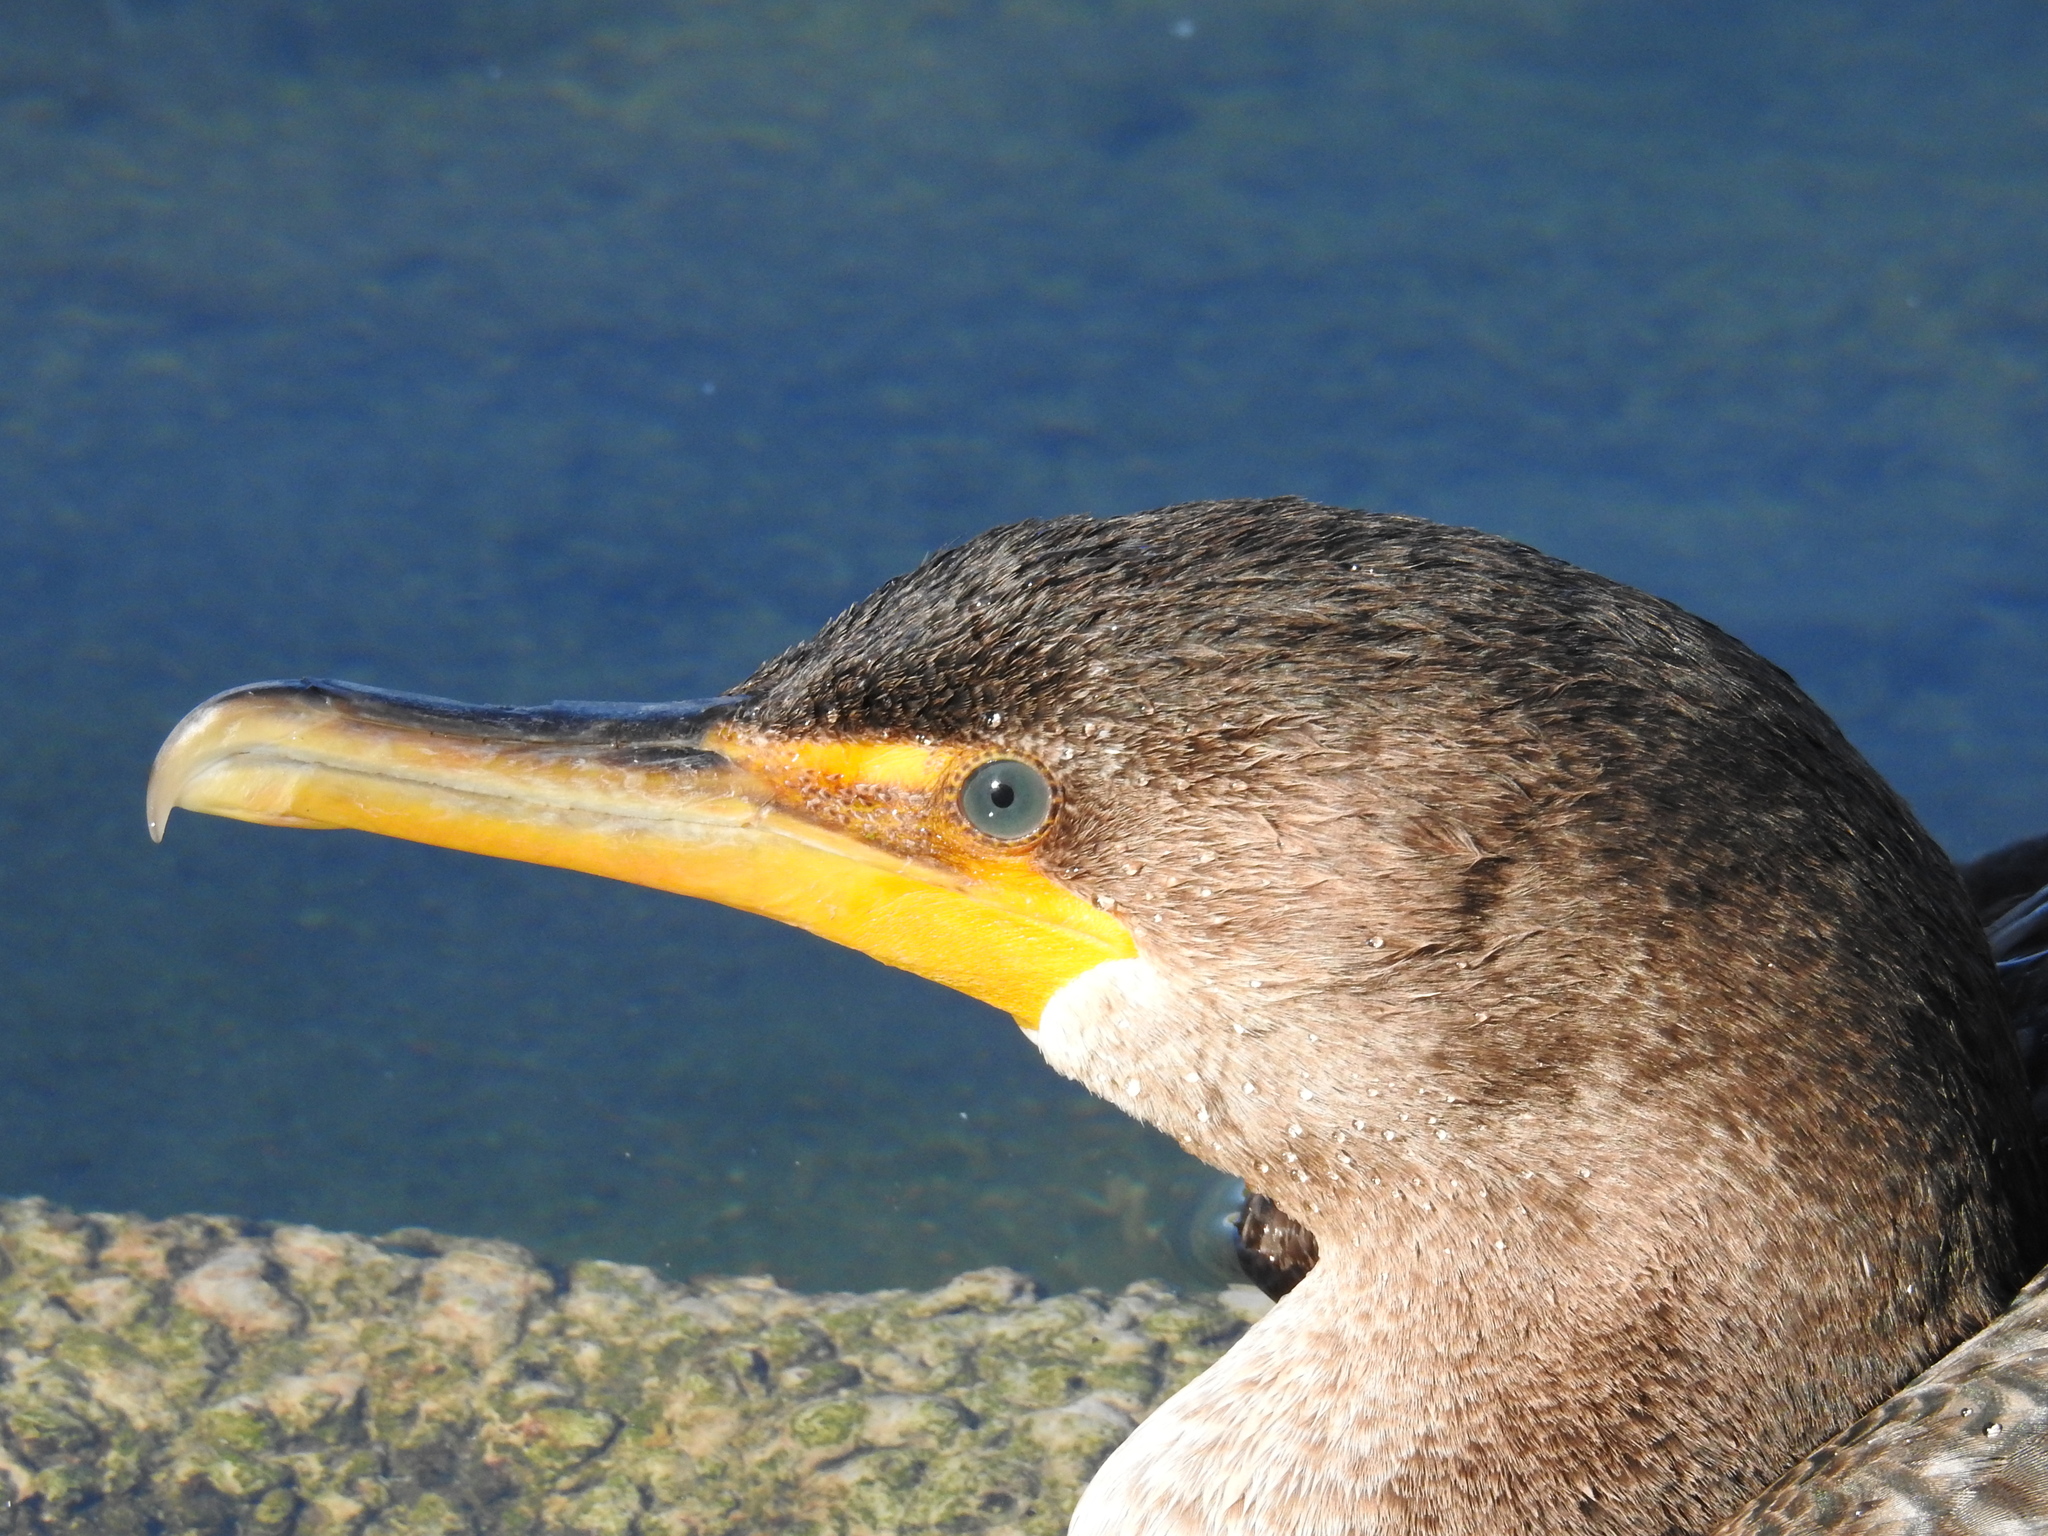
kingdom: Animalia
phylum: Chordata
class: Aves
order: Suliformes
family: Phalacrocoracidae
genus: Phalacrocorax
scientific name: Phalacrocorax auritus
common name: Double-crested cormorant
